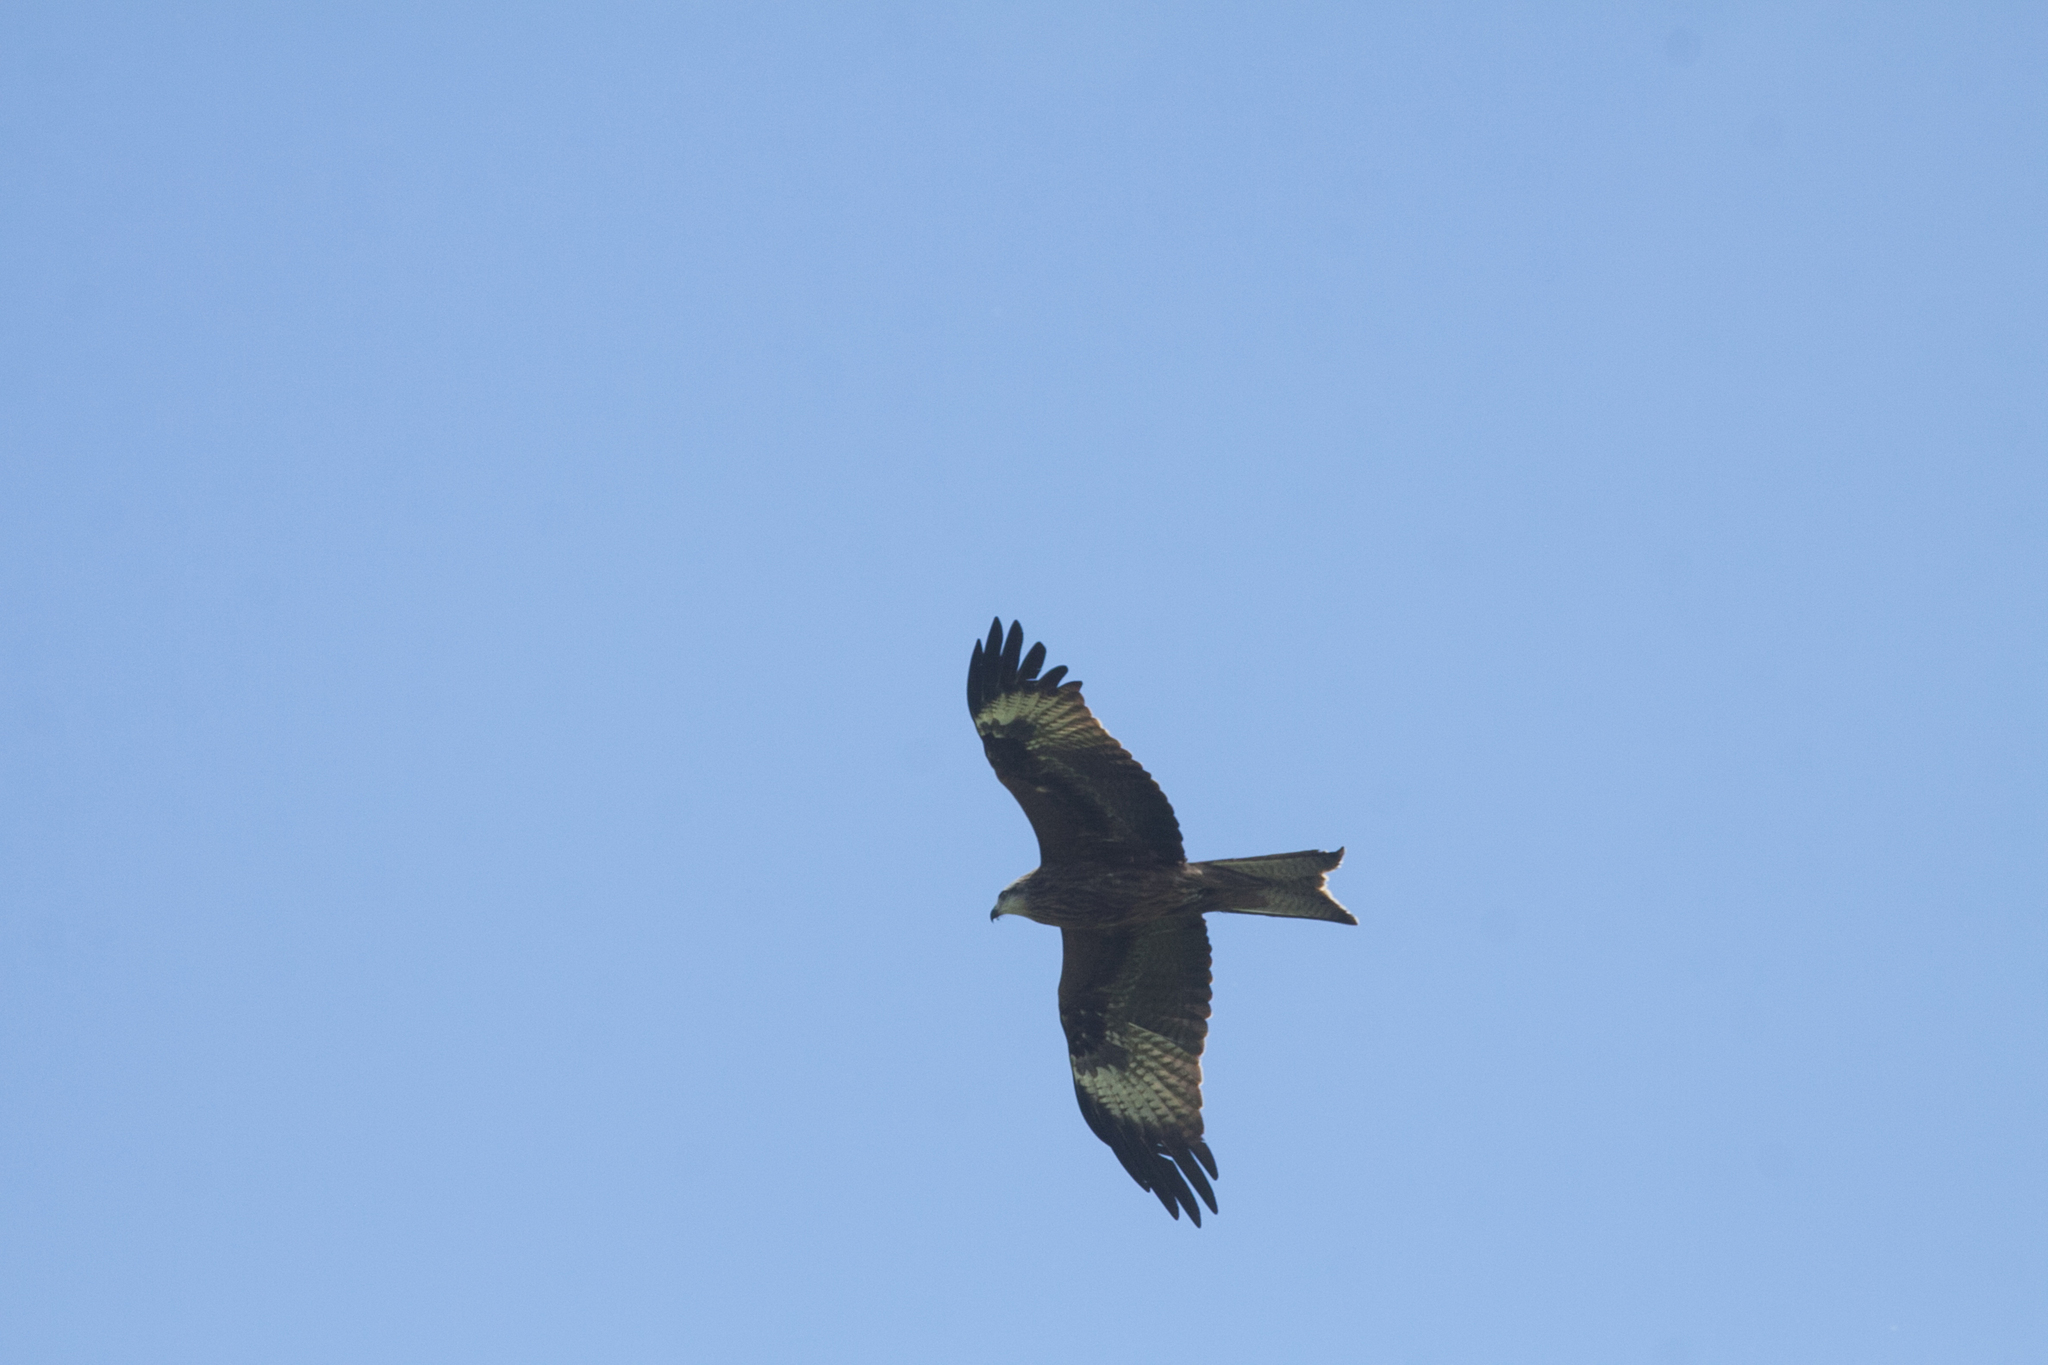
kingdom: Animalia
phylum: Chordata
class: Aves
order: Accipitriformes
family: Accipitridae
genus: Milvus
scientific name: Milvus migrans
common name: Black kite
